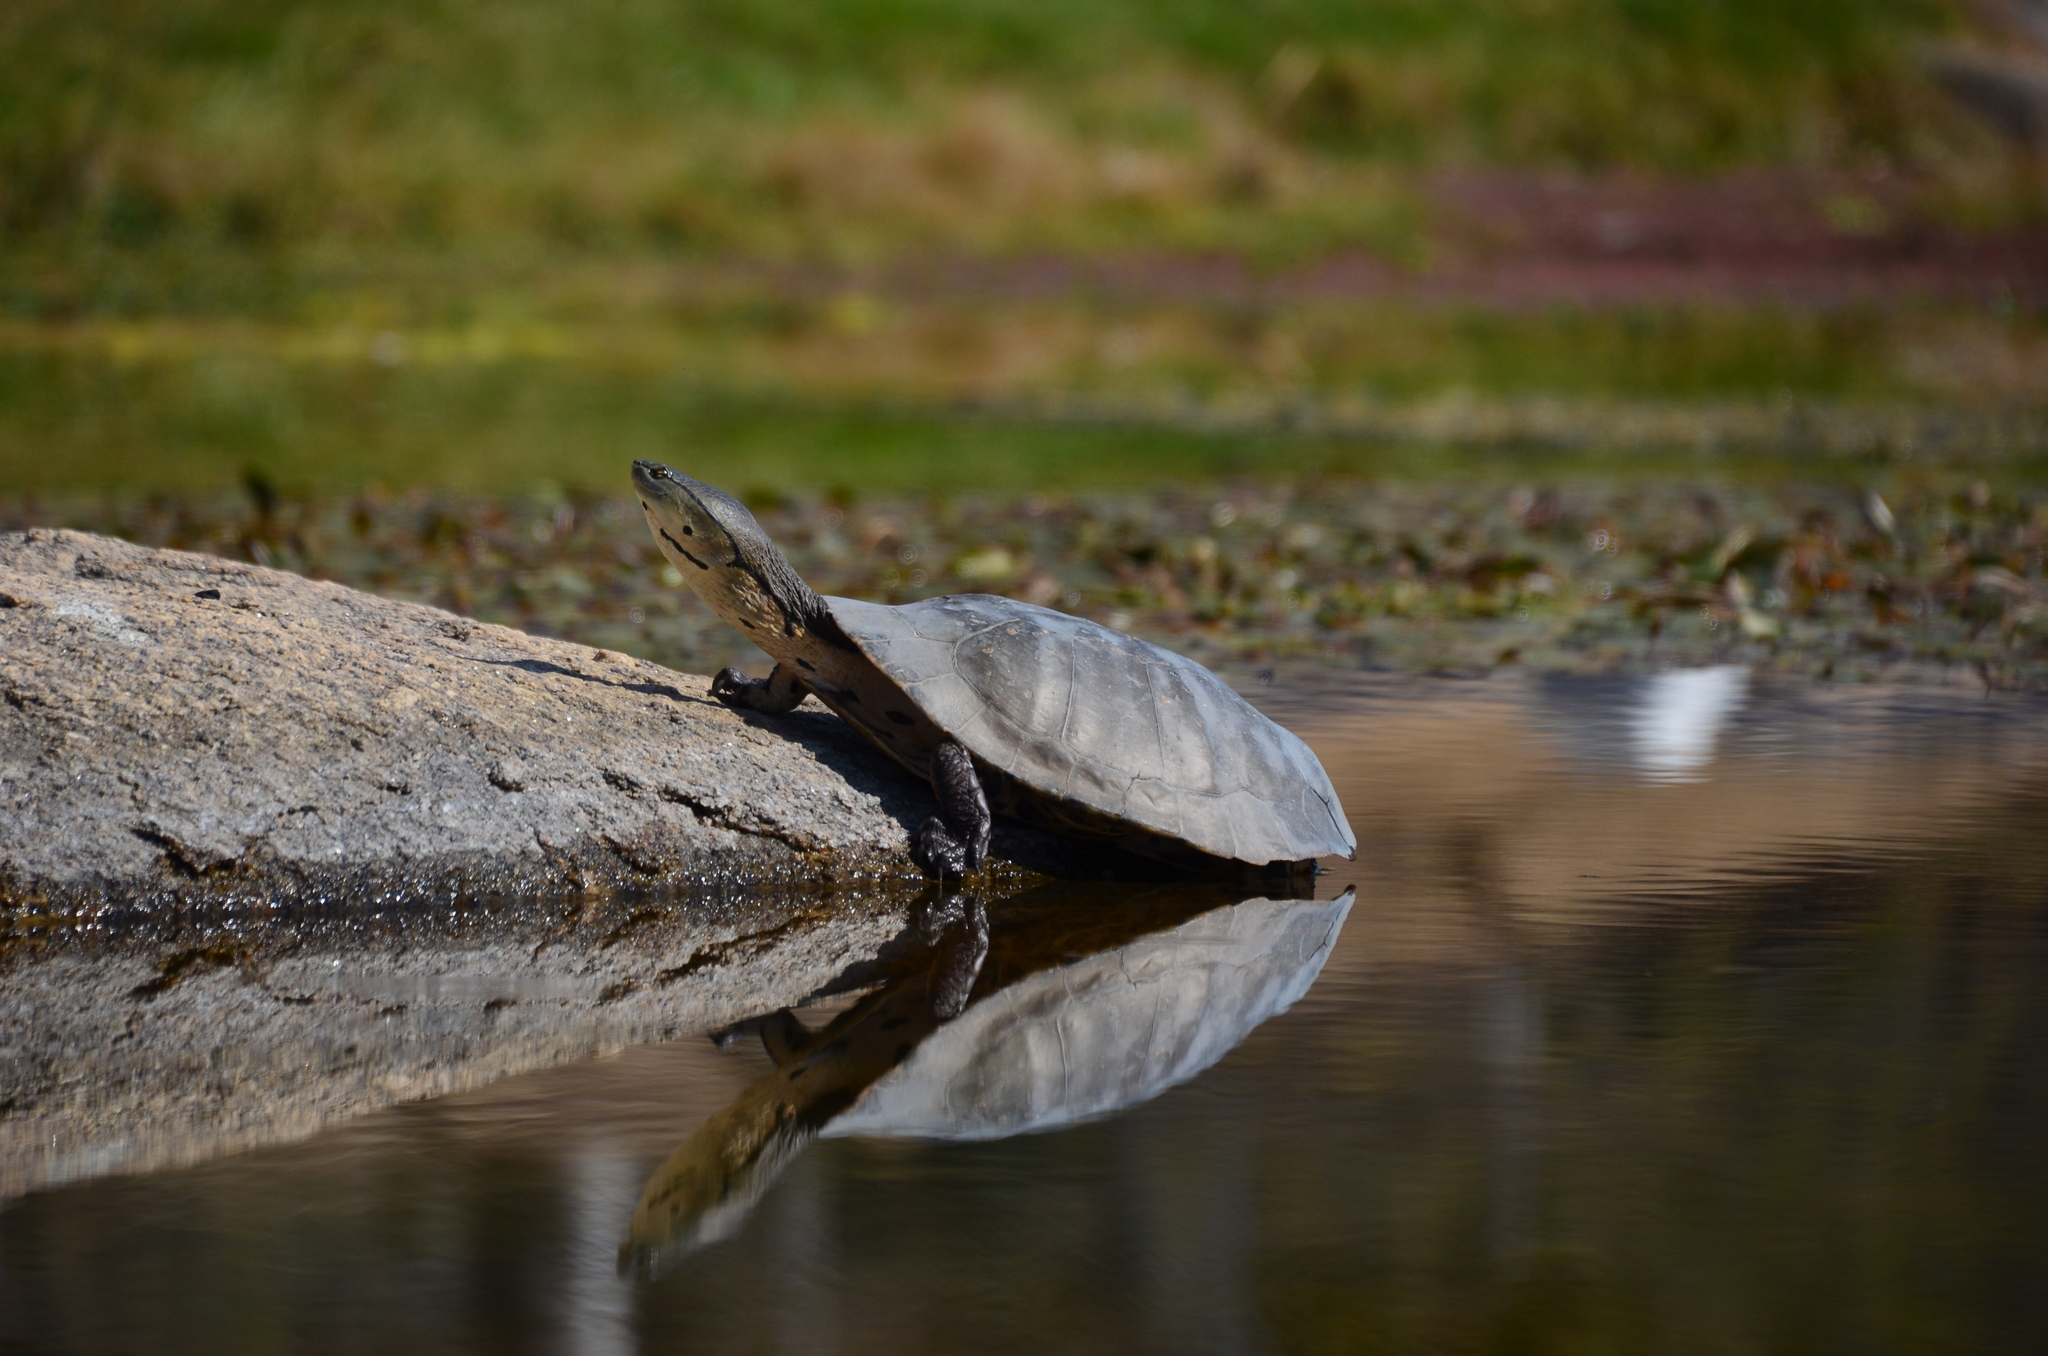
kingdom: Animalia
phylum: Chordata
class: Testudines
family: Chelidae
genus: Phrynops
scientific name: Phrynops hilarii
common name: Side-necked turtle of saint hillaire
